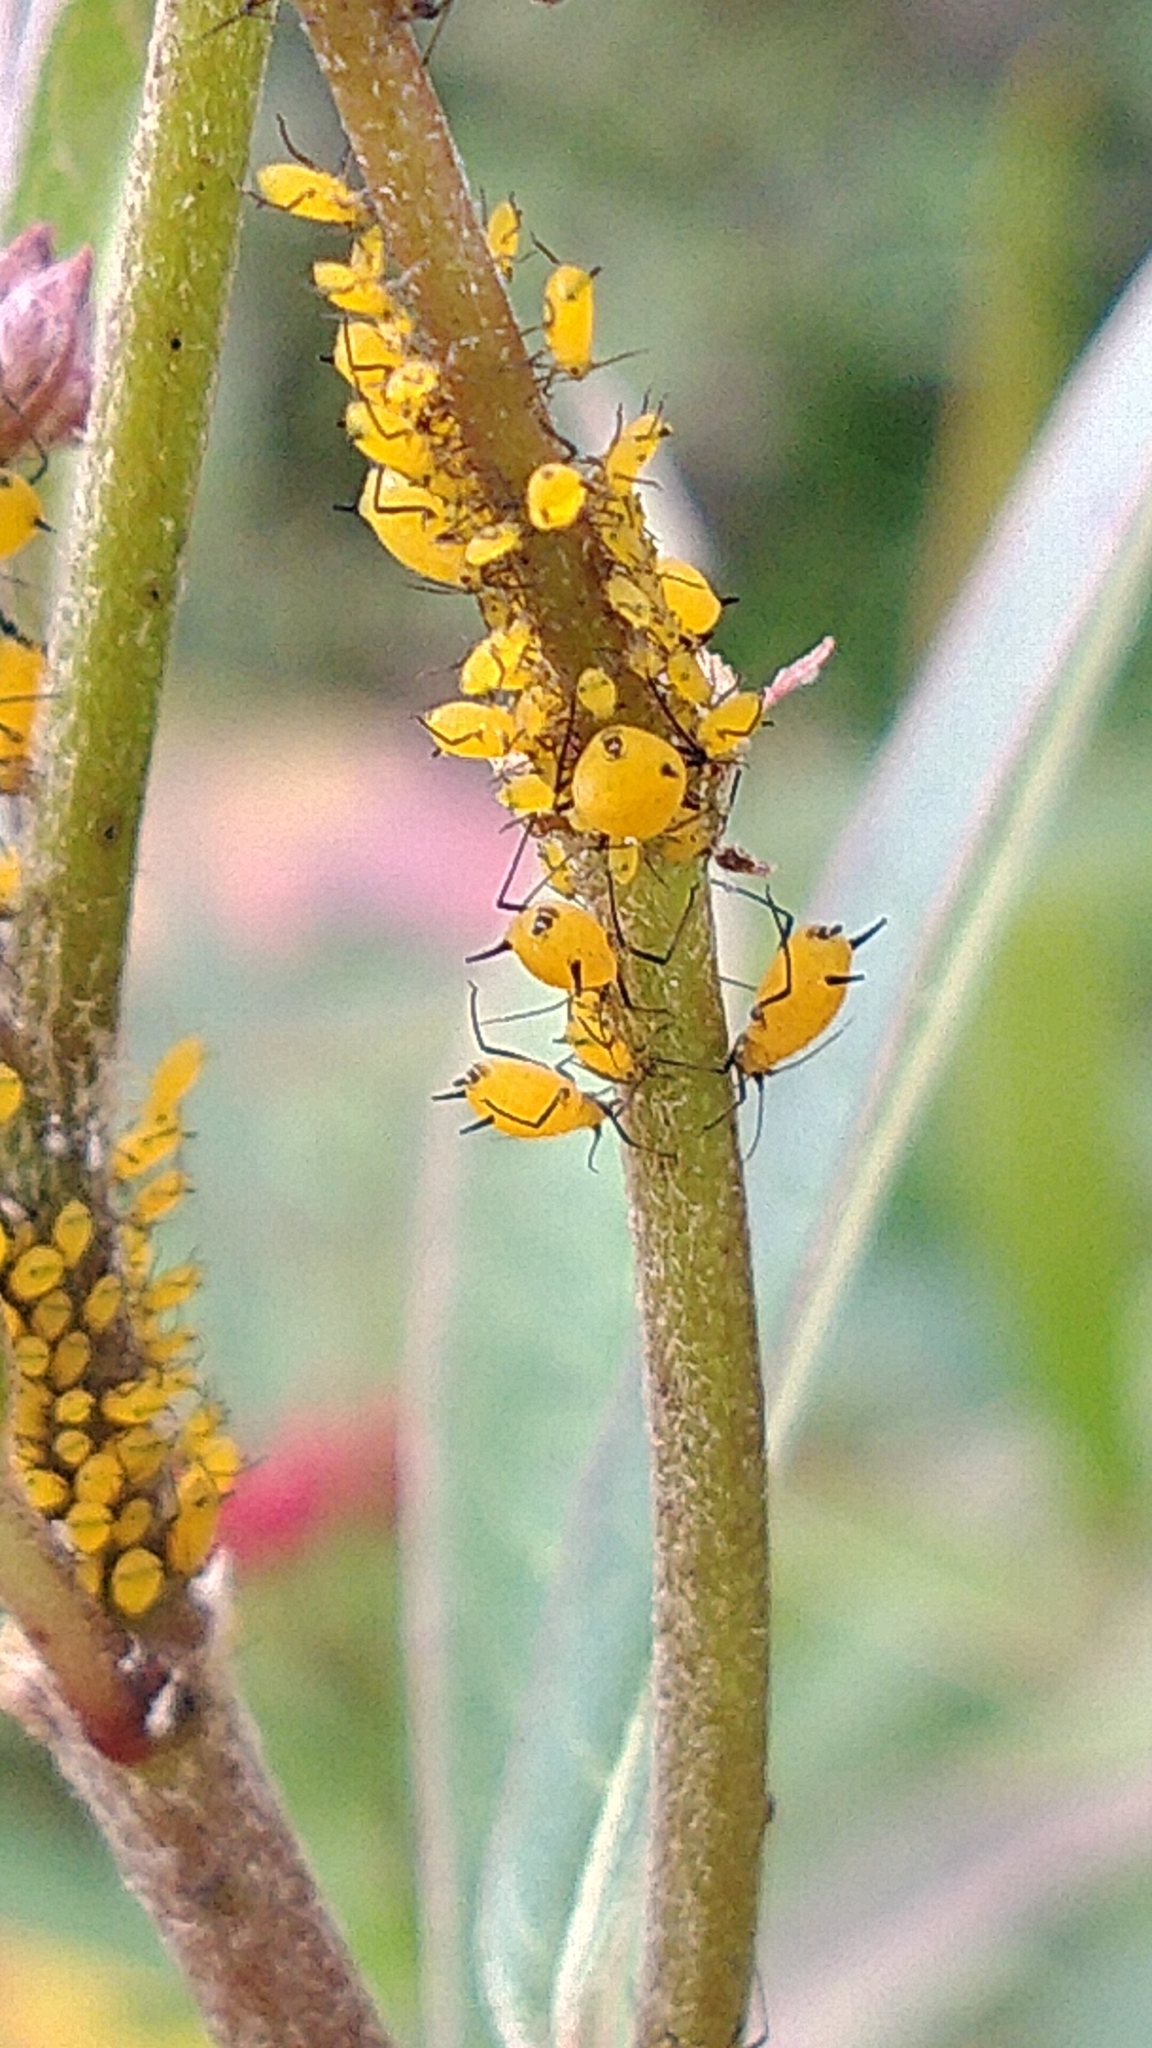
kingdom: Animalia
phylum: Arthropoda
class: Insecta
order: Hemiptera
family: Aphididae
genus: Aphis
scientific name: Aphis nerii
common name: Oleander aphid
